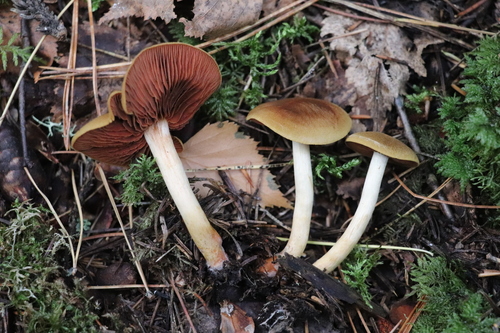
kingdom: Fungi
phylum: Basidiomycota
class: Agaricomycetes
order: Agaricales
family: Cortinariaceae
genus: Cortinarius
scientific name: Cortinarius semisanguineus
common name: Surprise webcap
